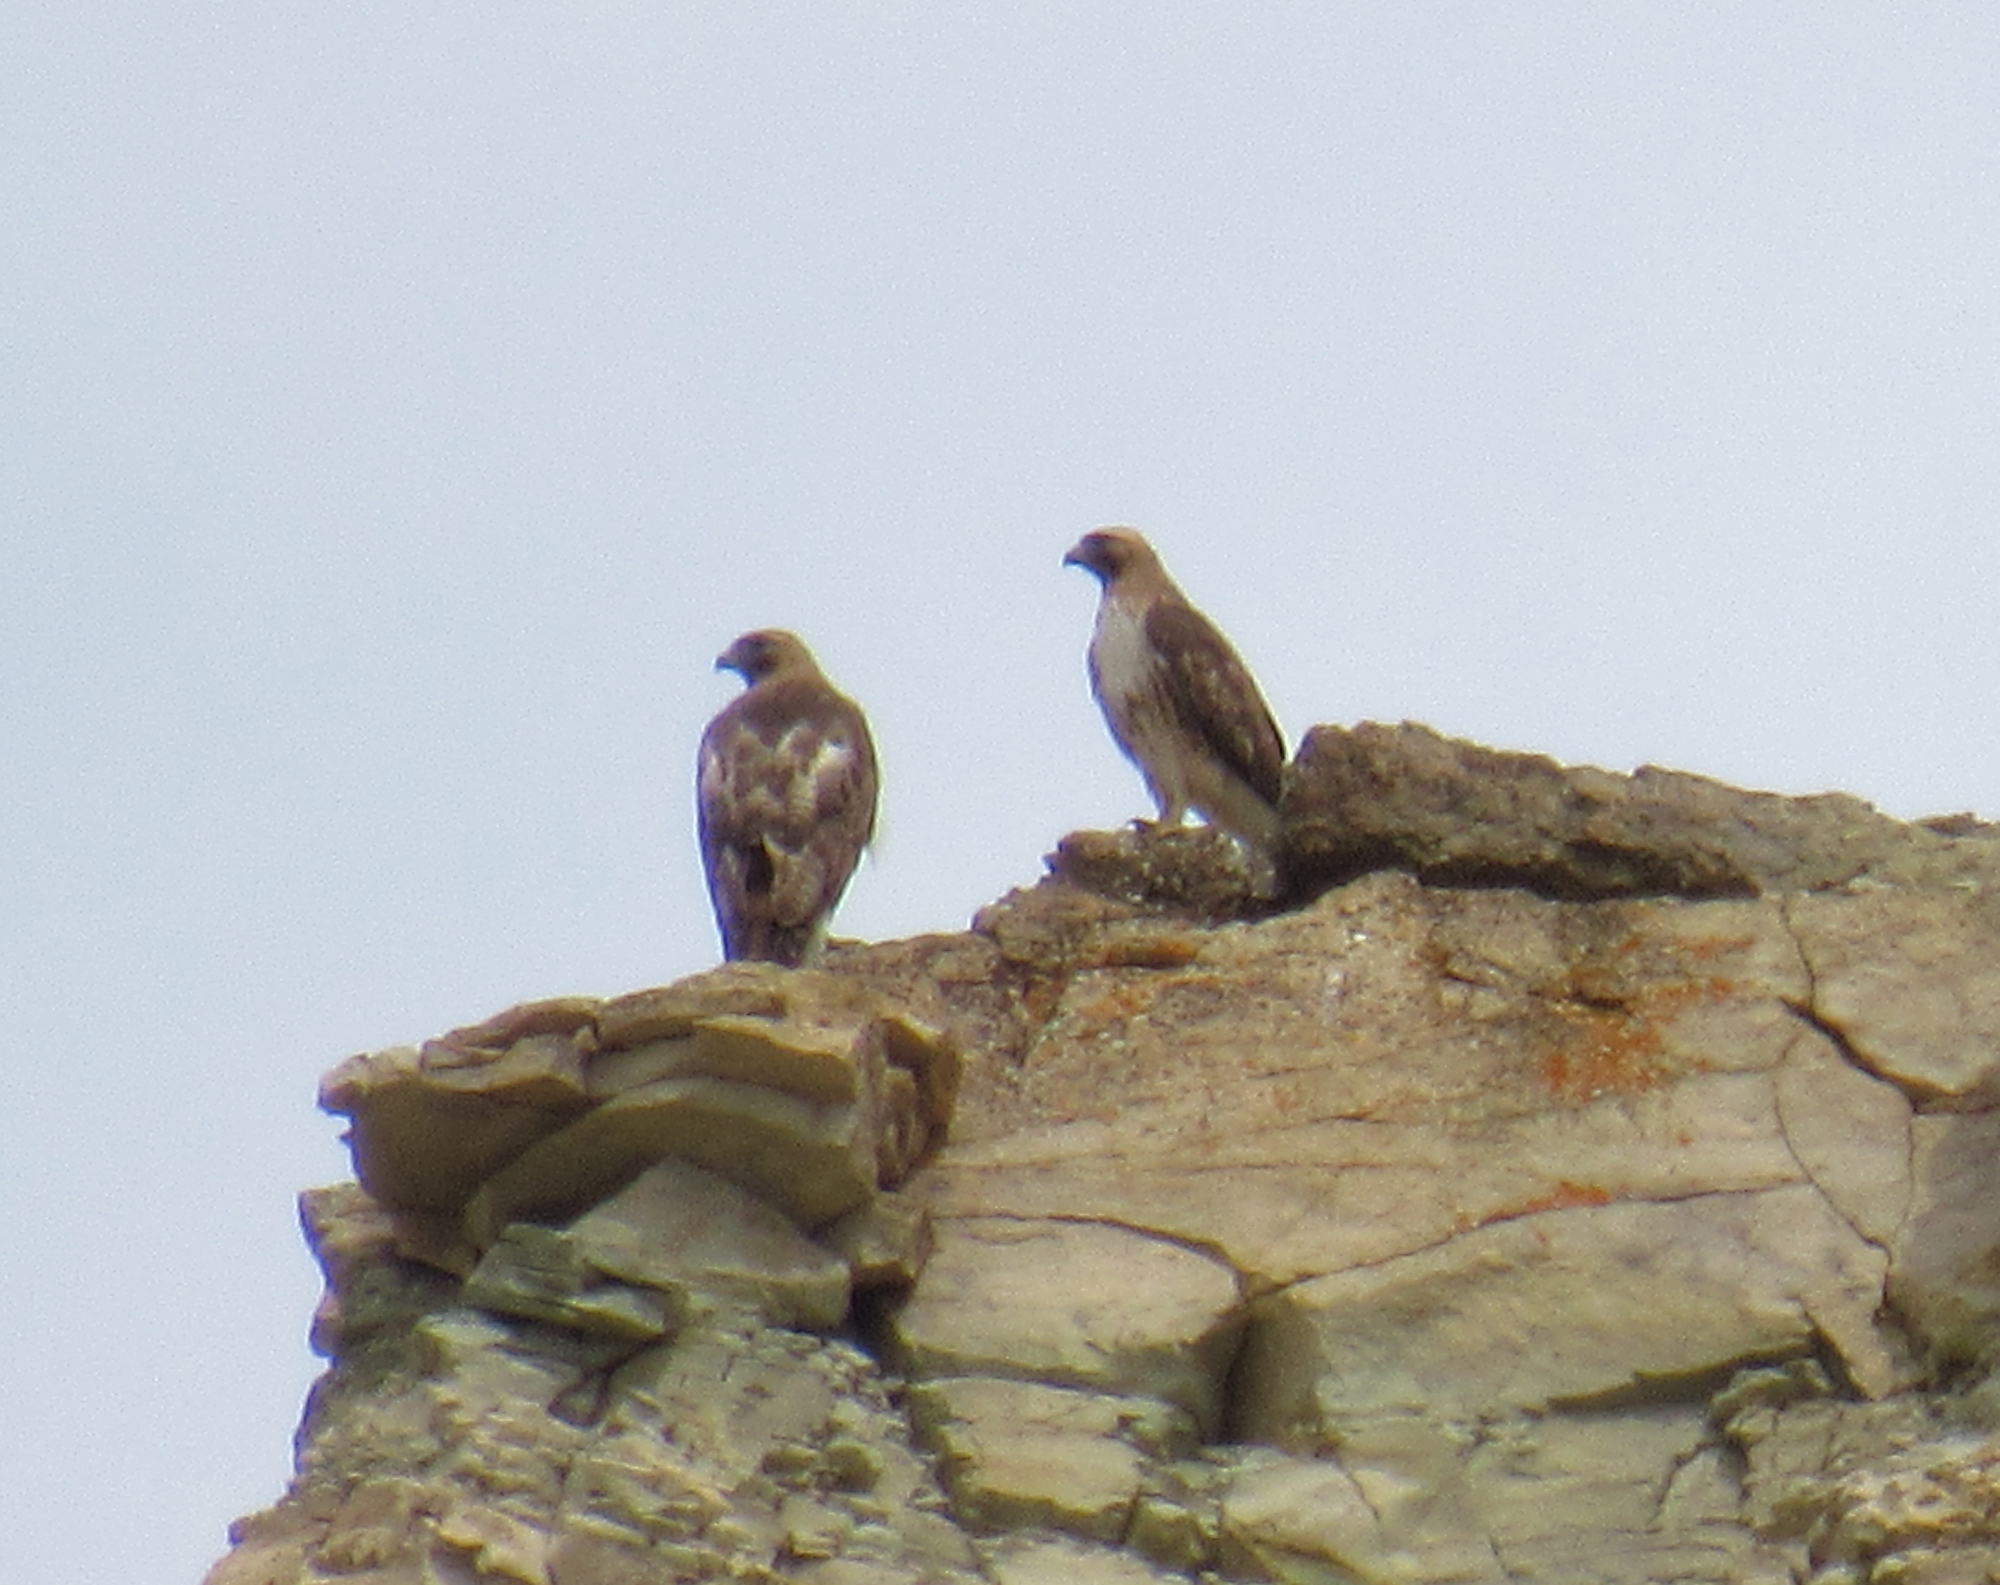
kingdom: Animalia
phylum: Chordata
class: Aves
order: Accipitriformes
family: Accipitridae
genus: Buteo
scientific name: Buteo jamaicensis
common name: Red-tailed hawk
